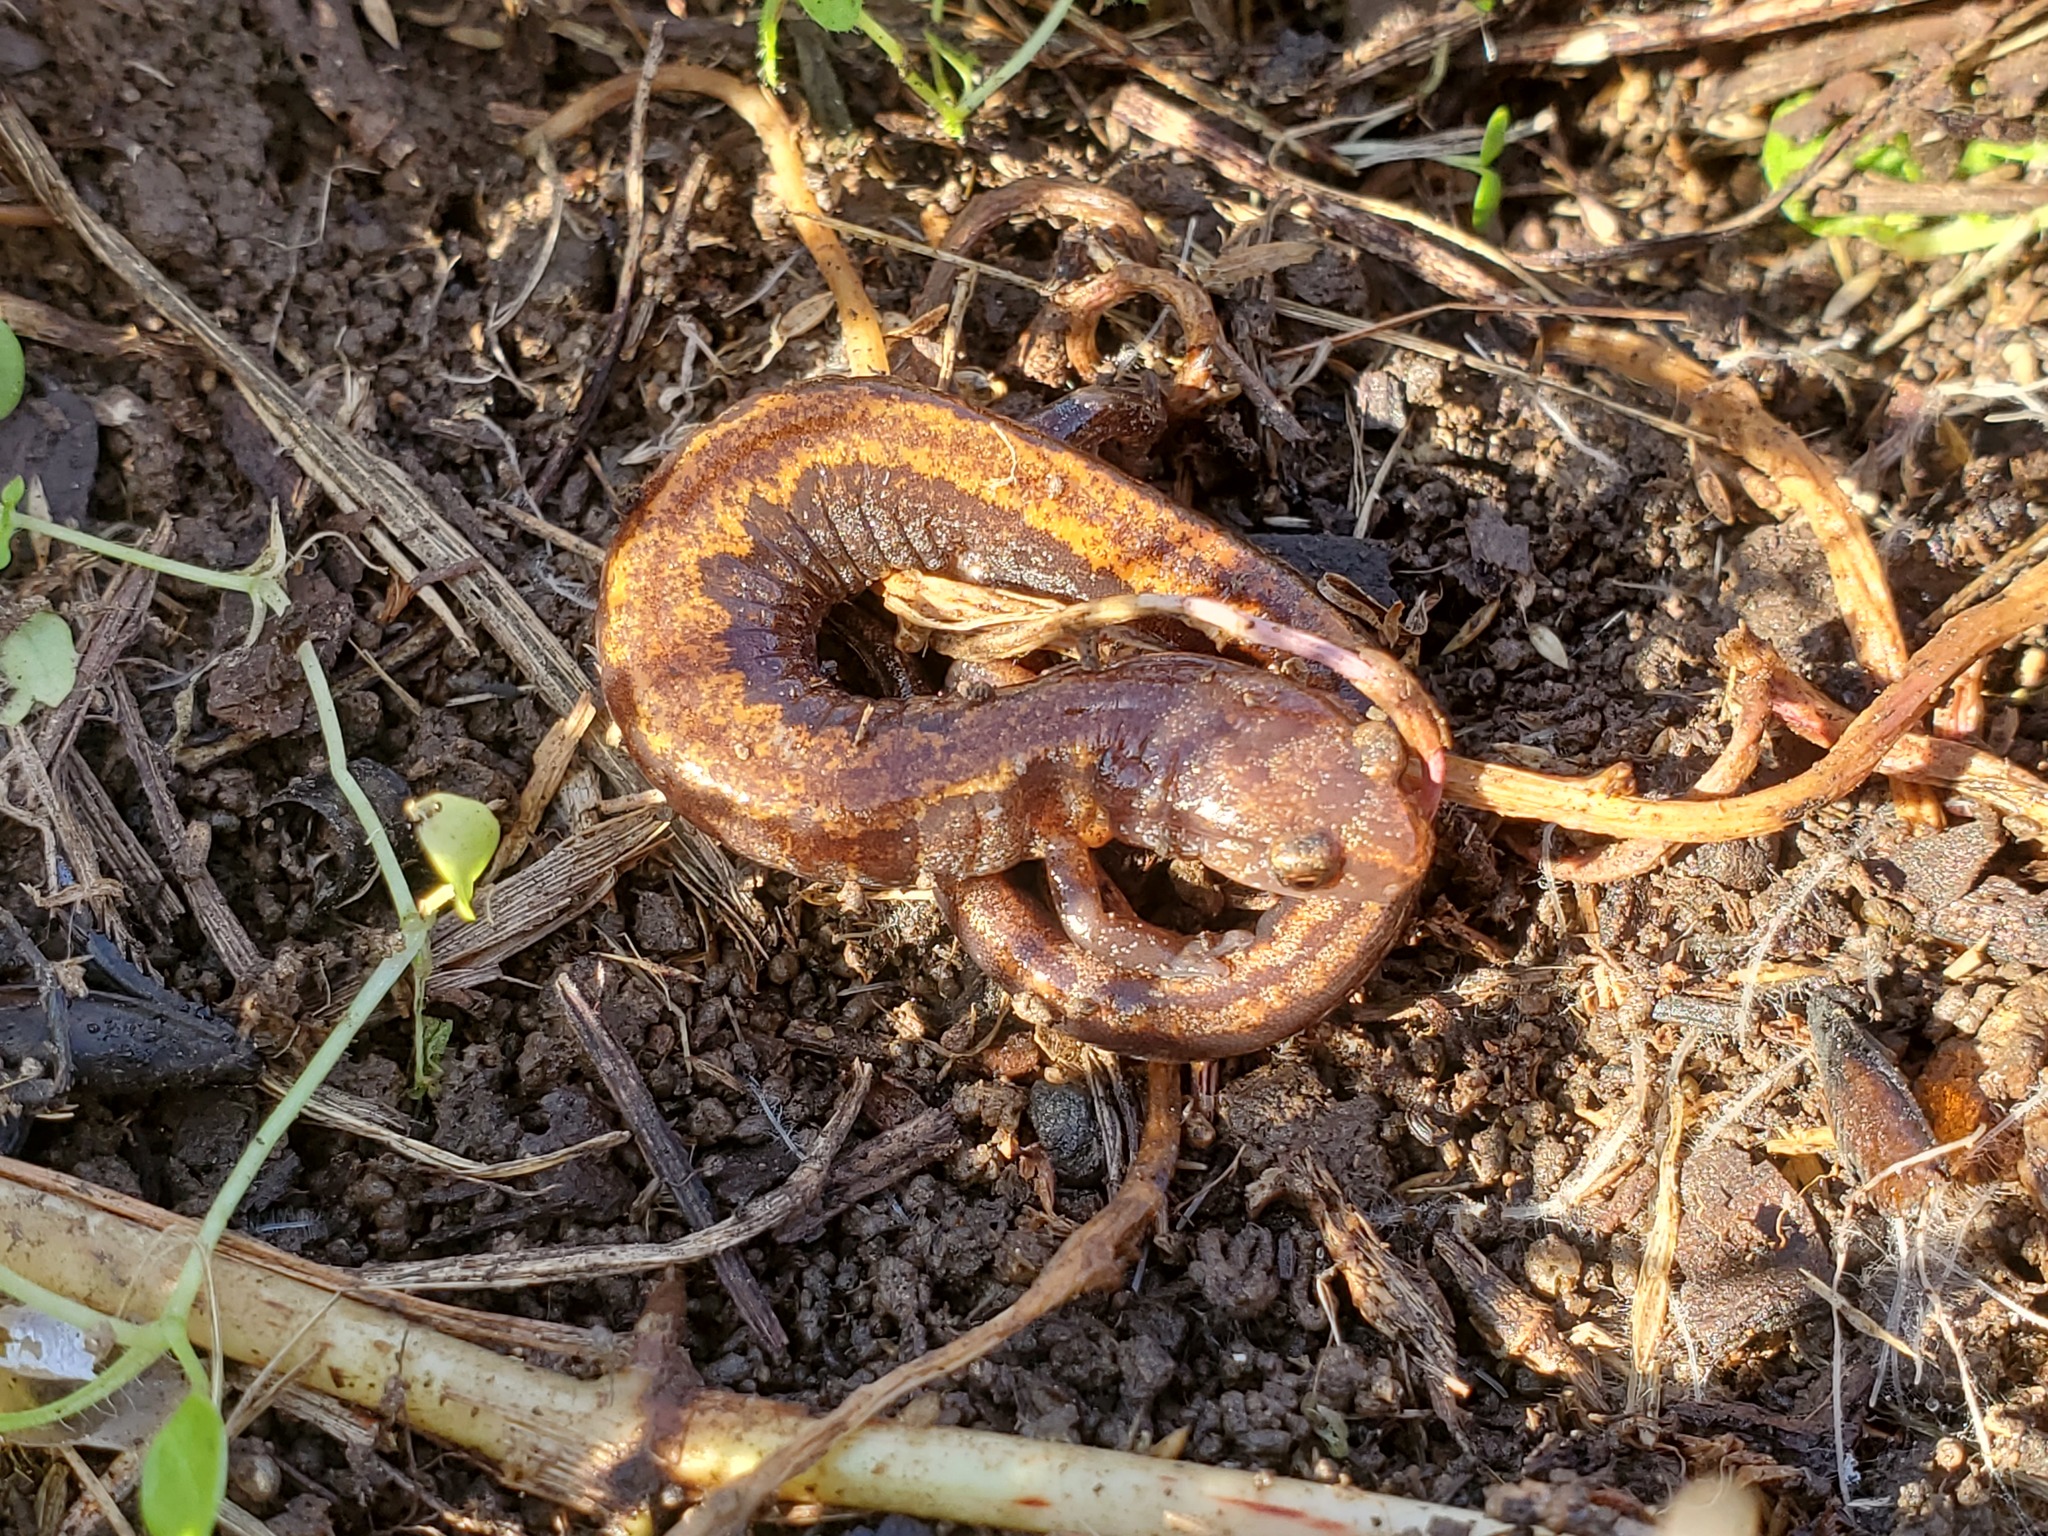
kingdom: Animalia
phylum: Chordata
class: Amphibia
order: Caudata
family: Plethodontidae
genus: Plethodon
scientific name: Plethodon dorsalis
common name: Northern zigzag salamander
